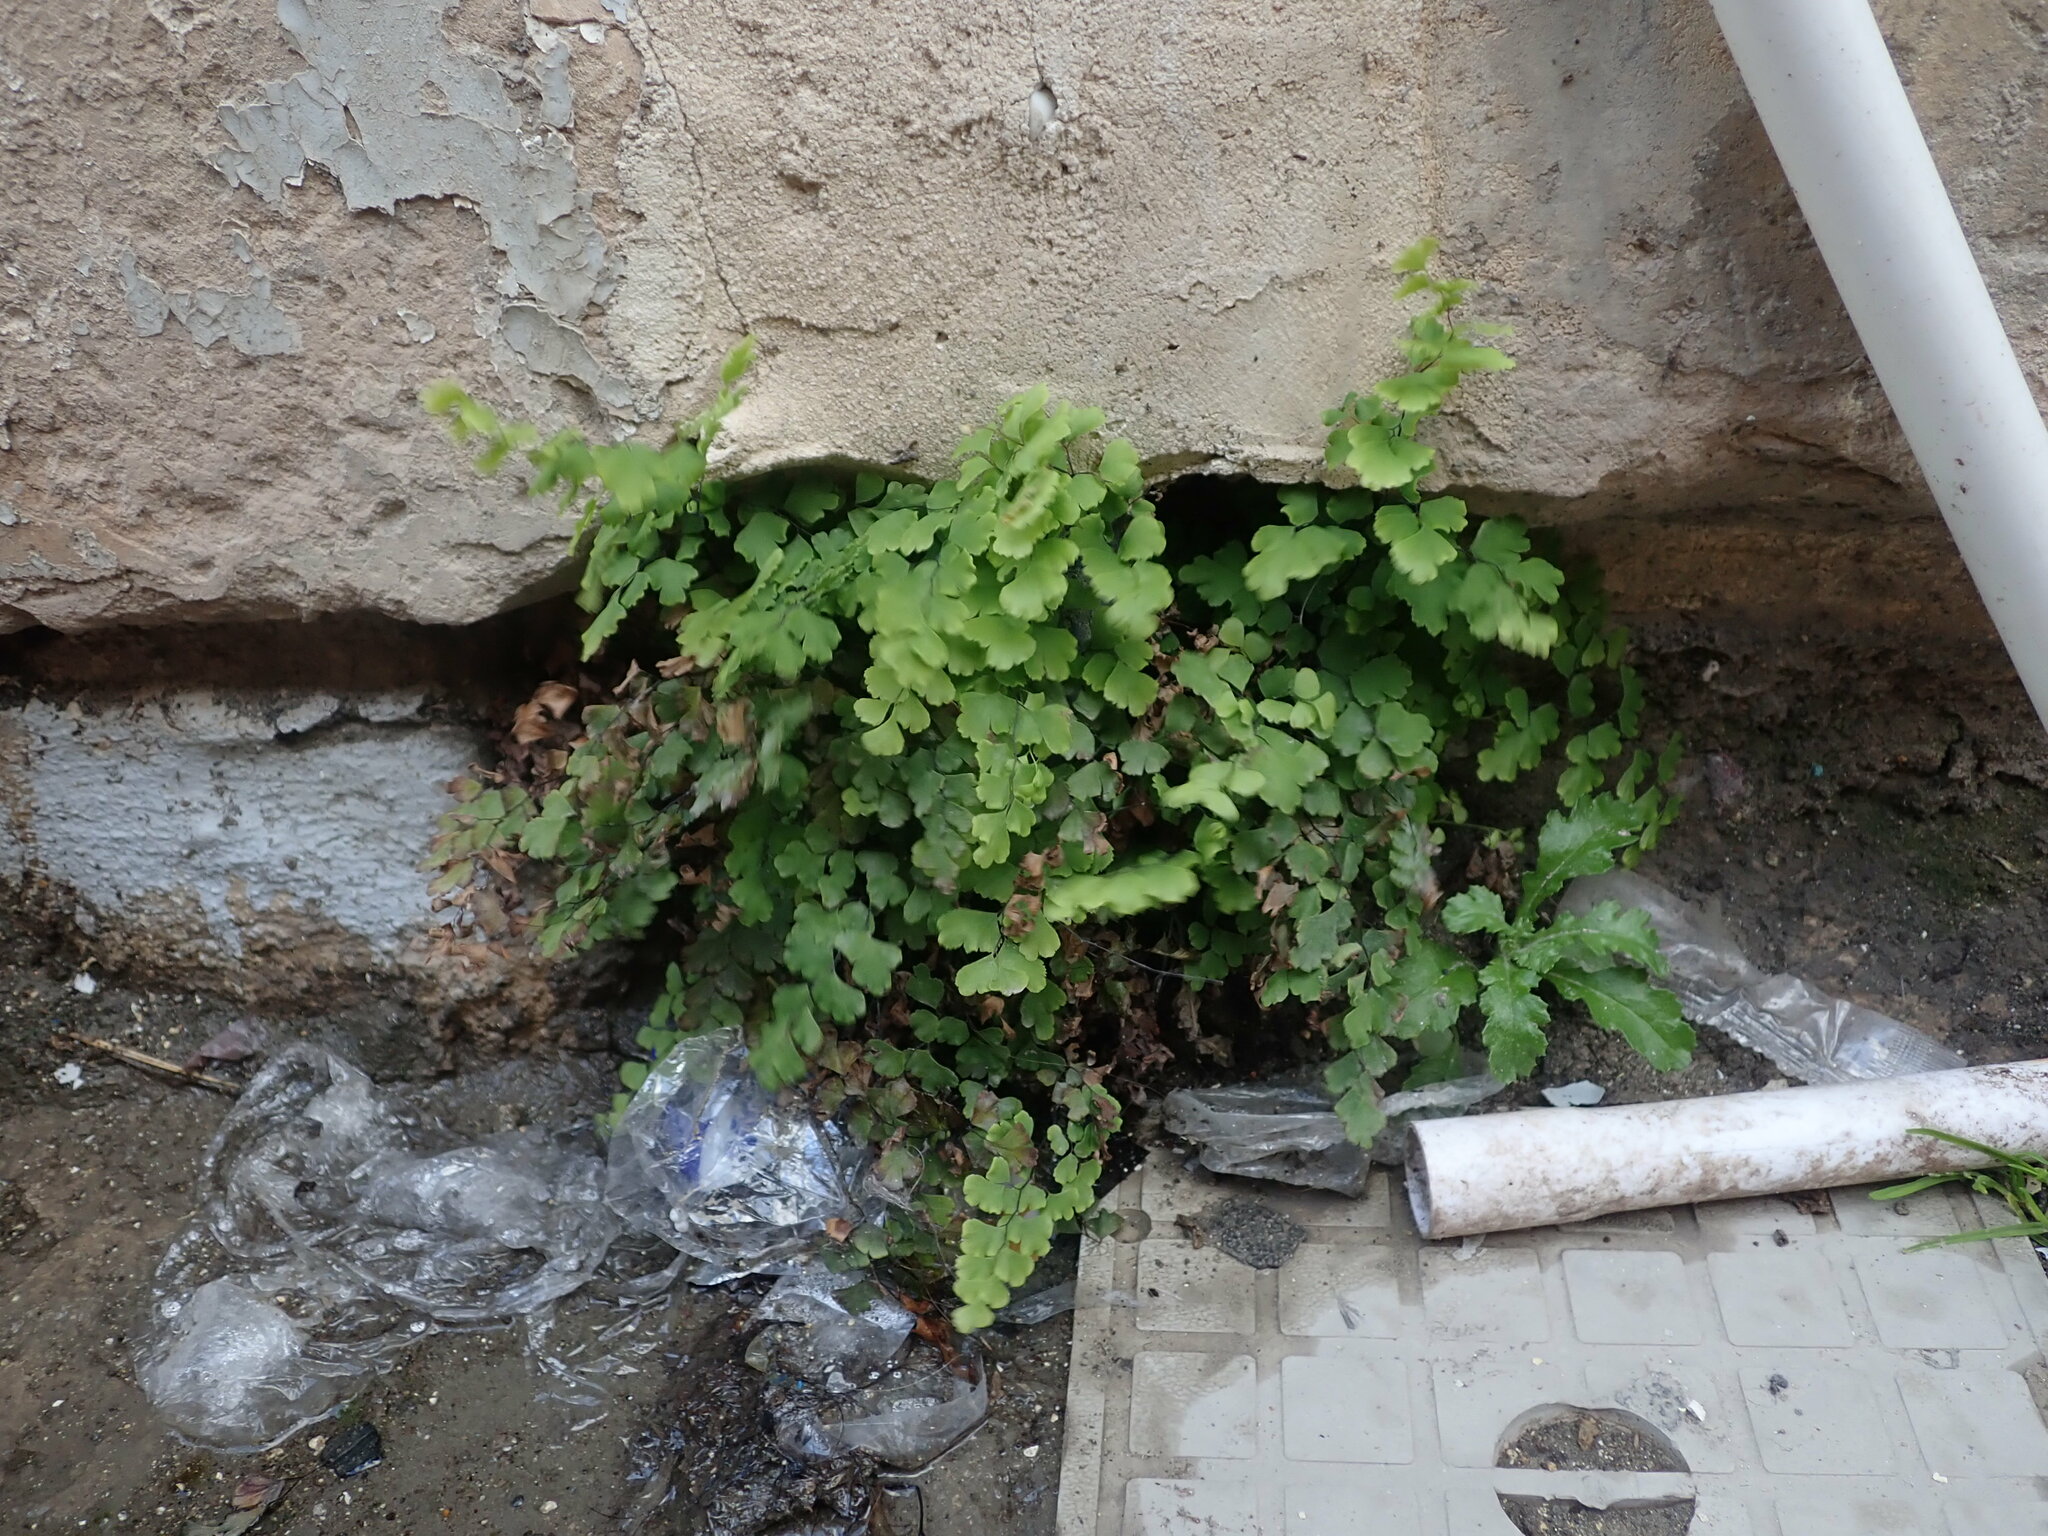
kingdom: Plantae
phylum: Tracheophyta
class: Polypodiopsida
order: Polypodiales
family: Pteridaceae
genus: Adiantum
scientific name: Adiantum capillus-veneris
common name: Maidenhair fern
